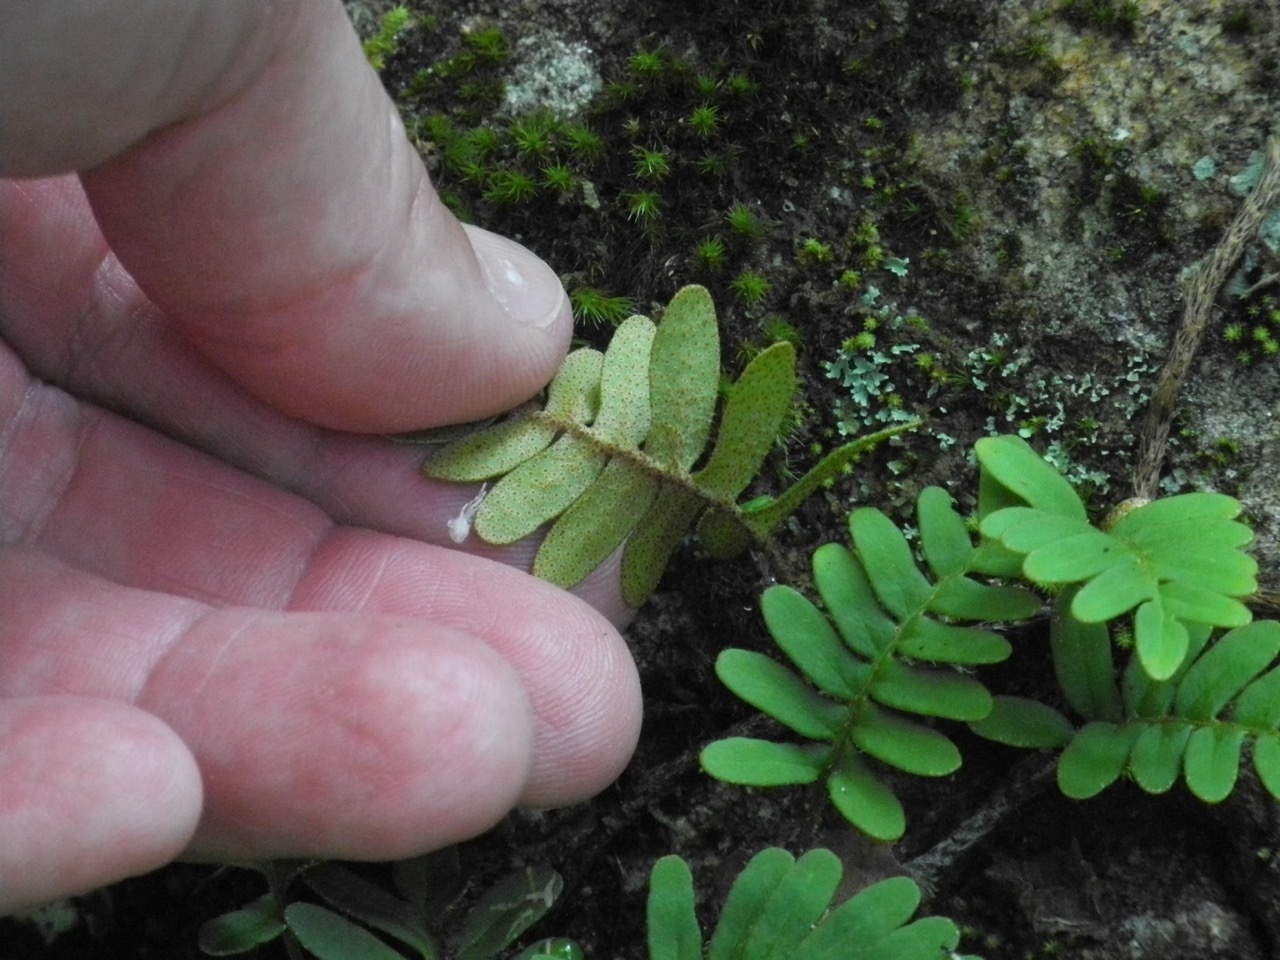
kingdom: Plantae
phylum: Tracheophyta
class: Polypodiopsida
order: Polypodiales
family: Polypodiaceae
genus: Pleopeltis
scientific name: Pleopeltis michauxiana
